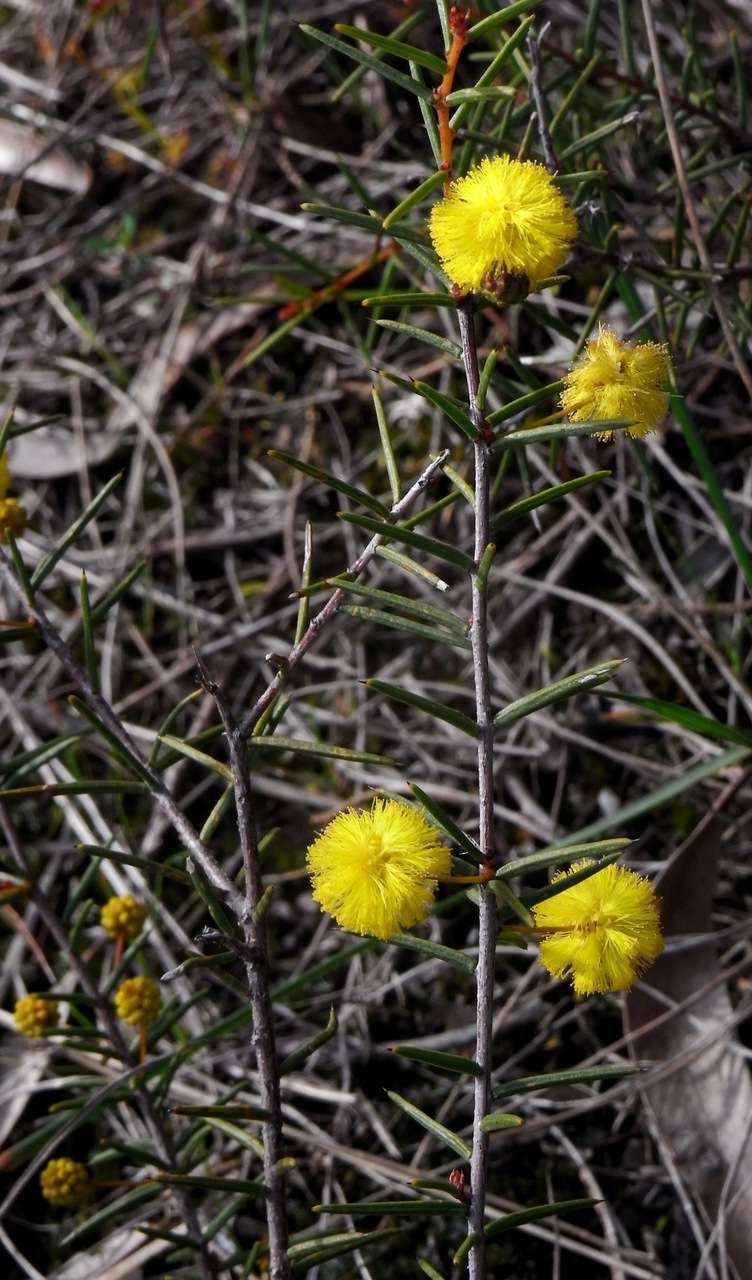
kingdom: Plantae
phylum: Tracheophyta
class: Magnoliopsida
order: Fabales
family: Fabaceae
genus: Acacia
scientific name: Acacia brownii
